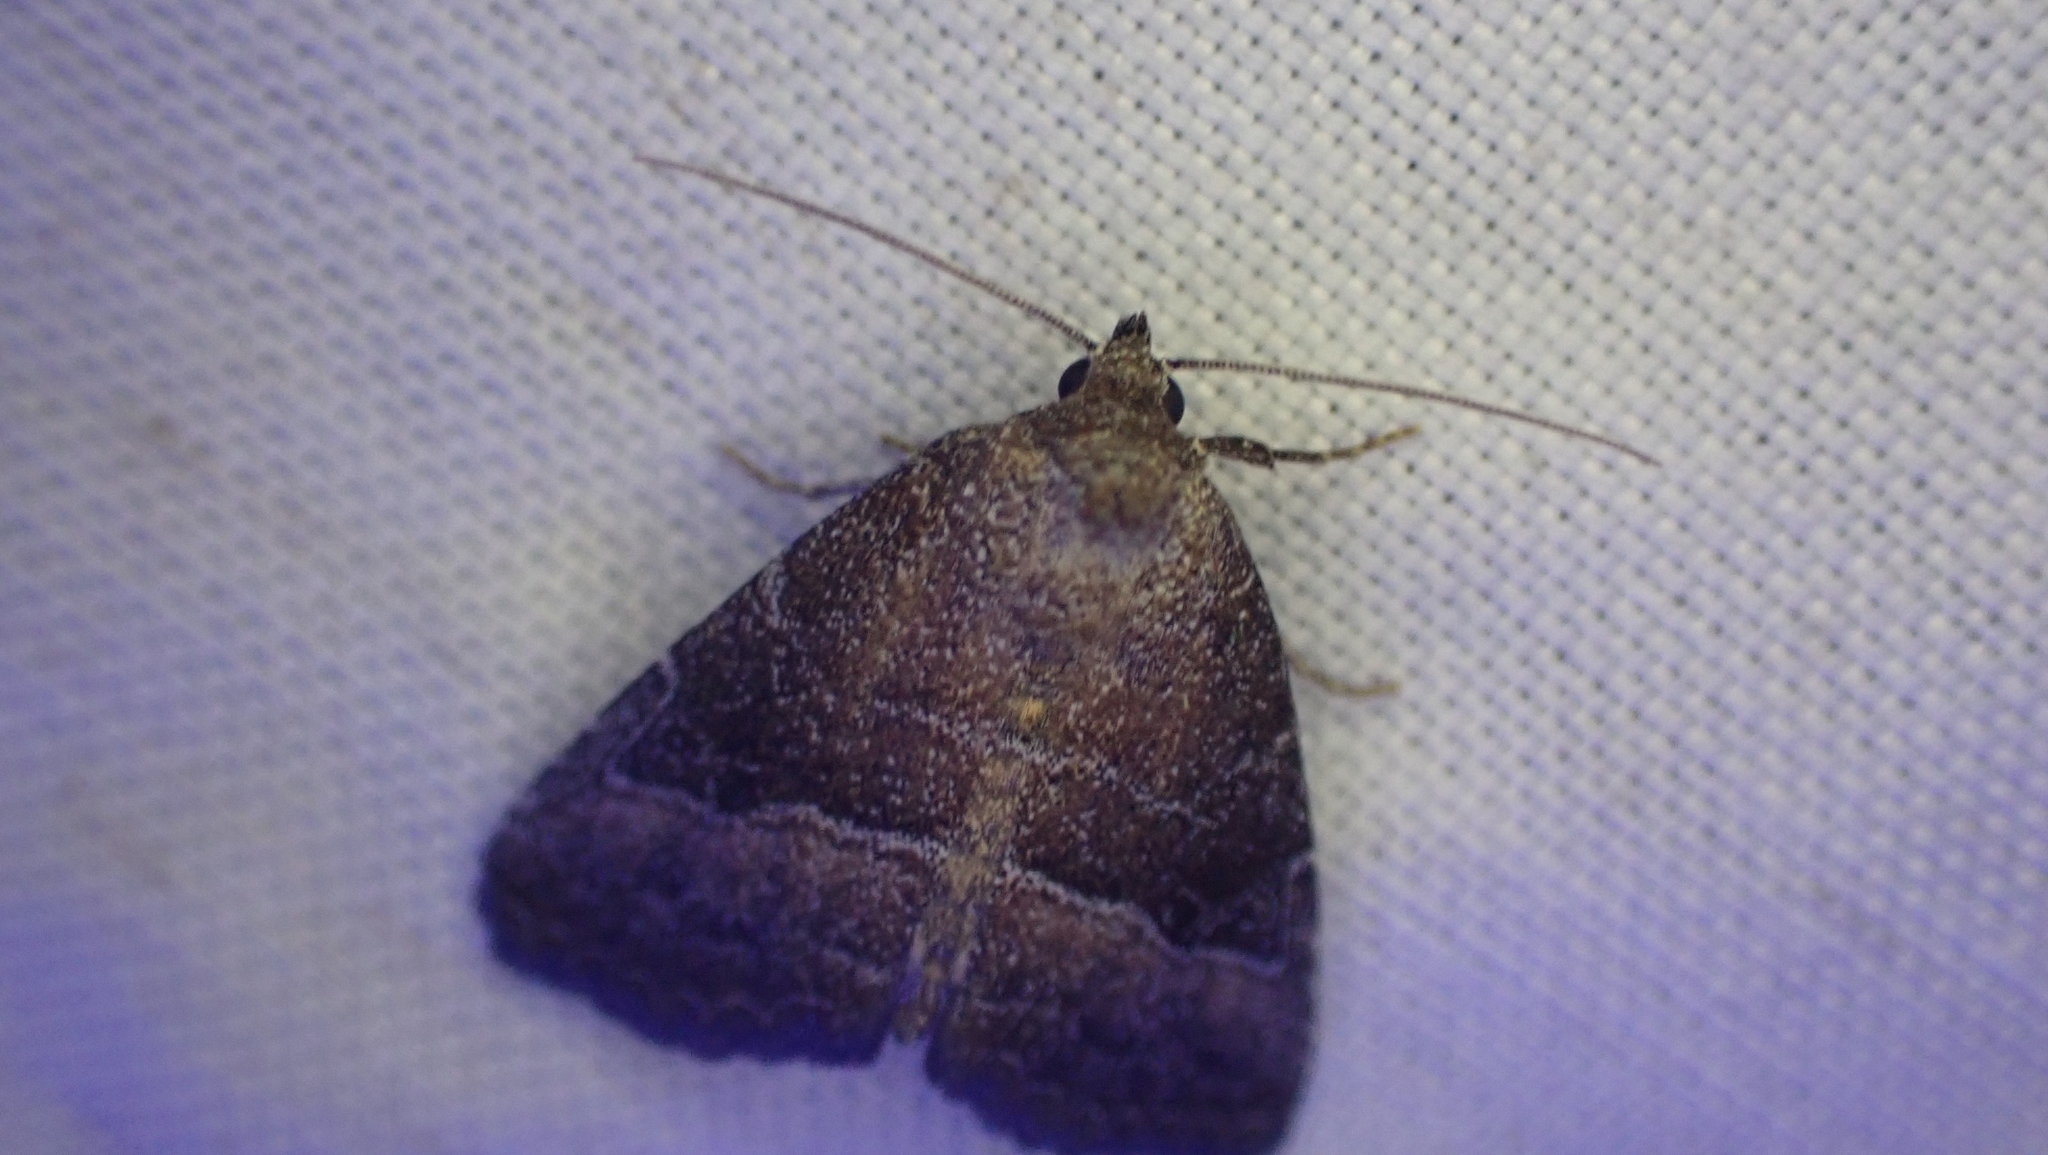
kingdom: Animalia
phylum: Arthropoda
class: Insecta
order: Lepidoptera
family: Noctuidae
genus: Ogdoconta
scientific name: Ogdoconta cinereola
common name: Common pinkband
